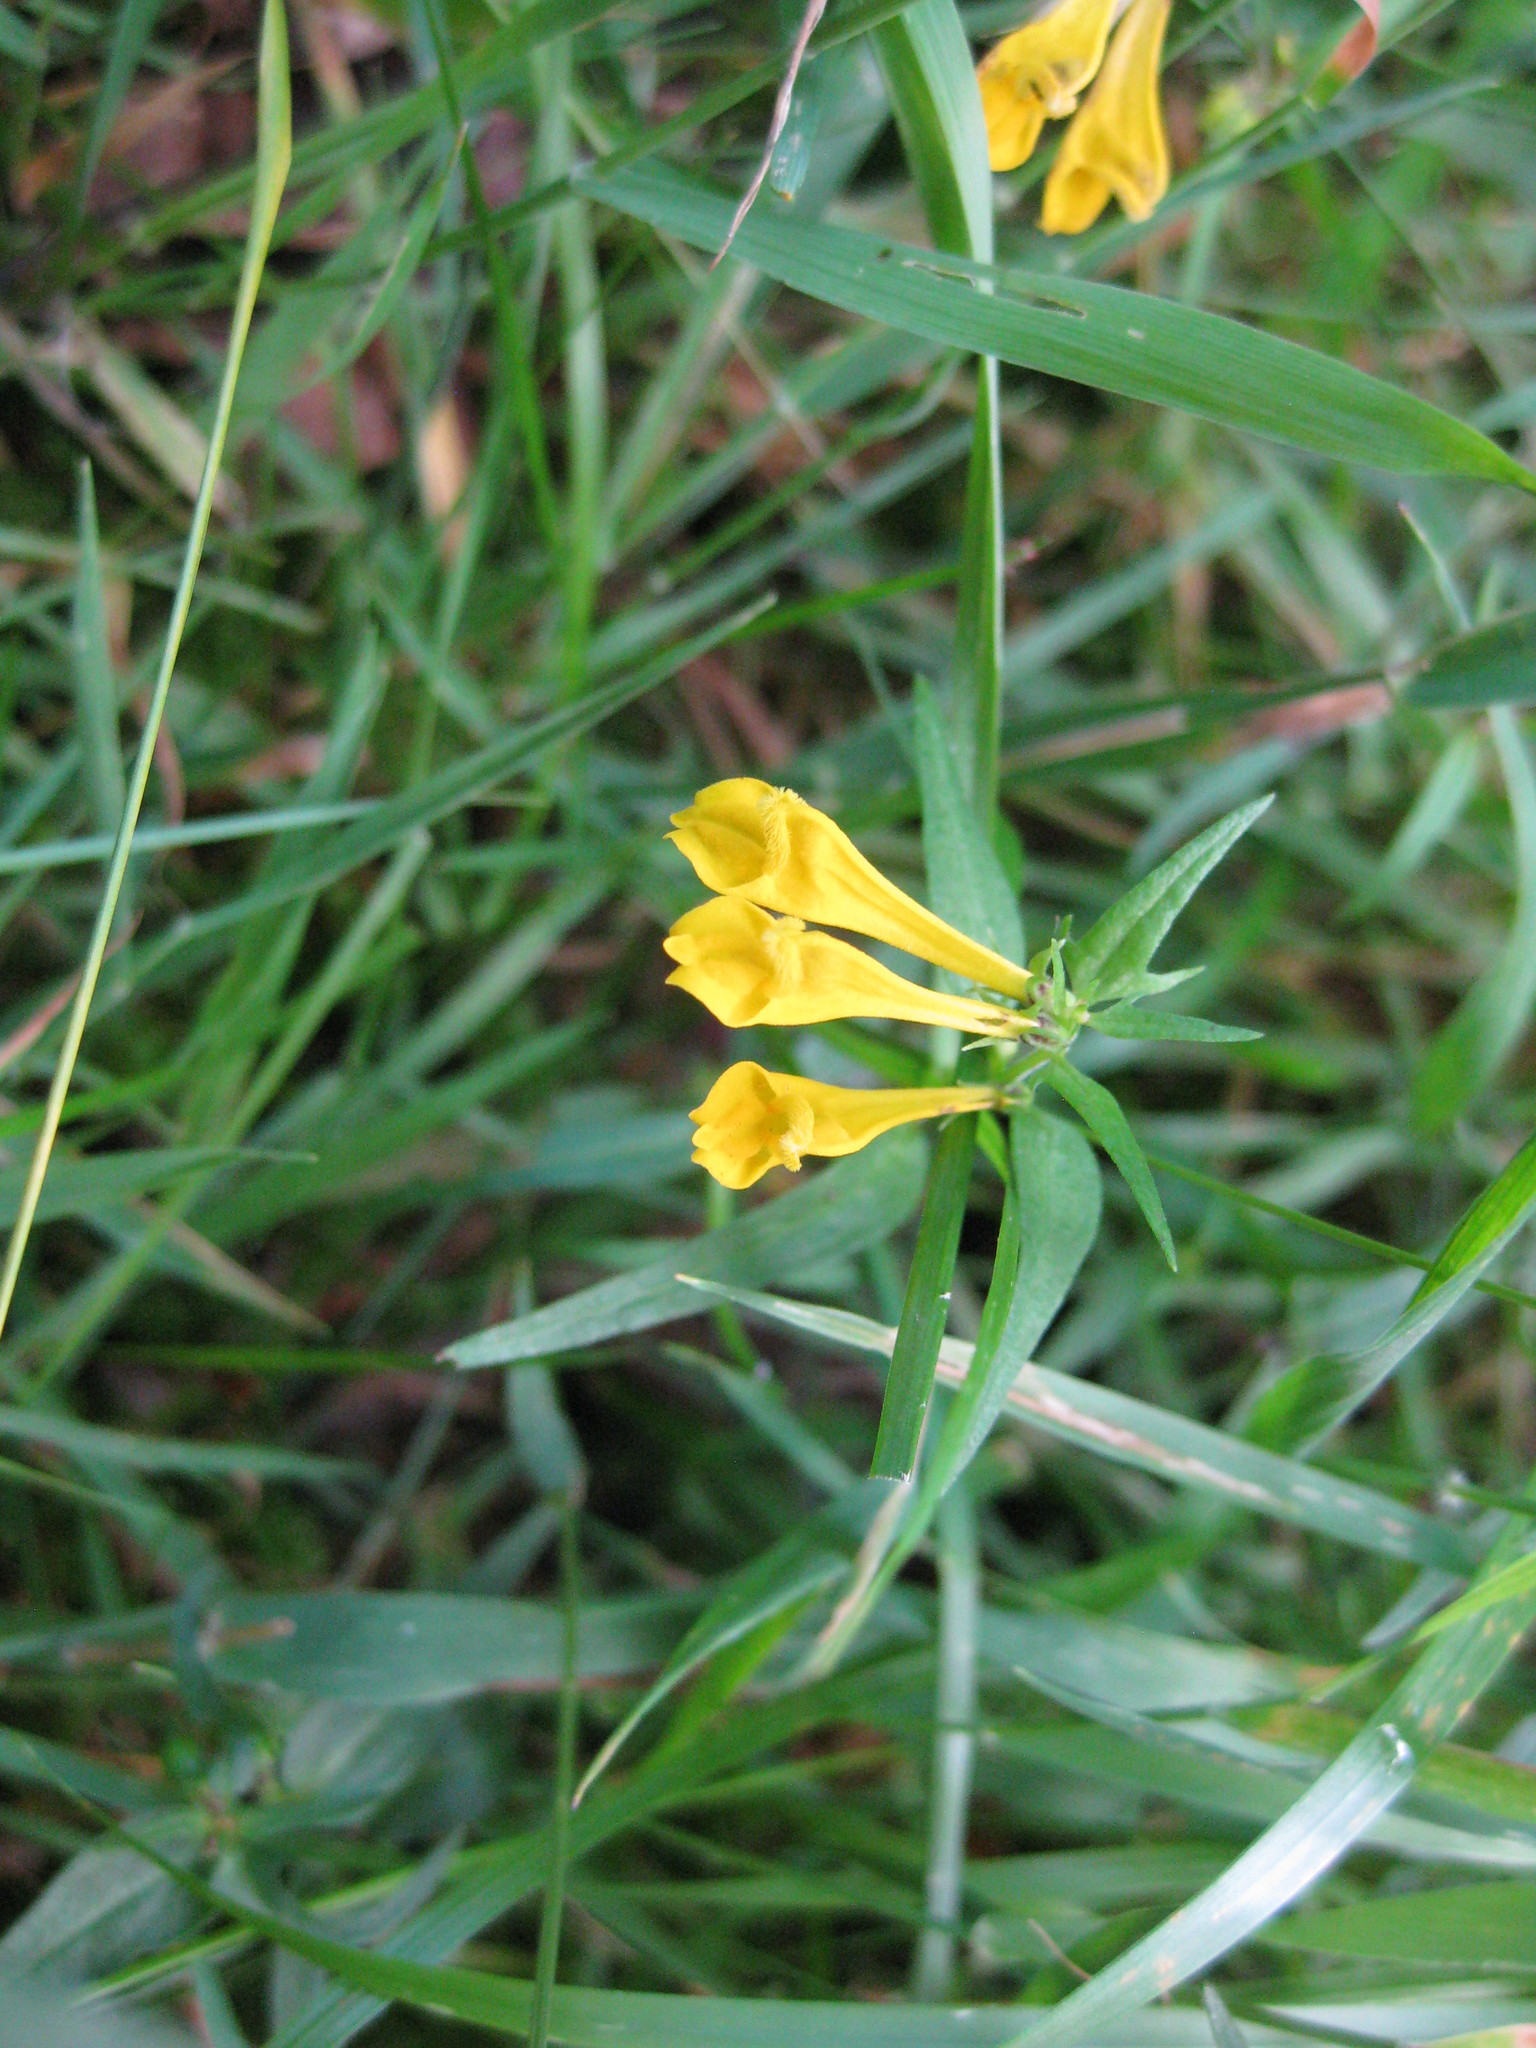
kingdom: Plantae
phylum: Tracheophyta
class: Magnoliopsida
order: Lamiales
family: Orobanchaceae
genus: Melampyrum
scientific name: Melampyrum pratense
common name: Common cow-wheat
